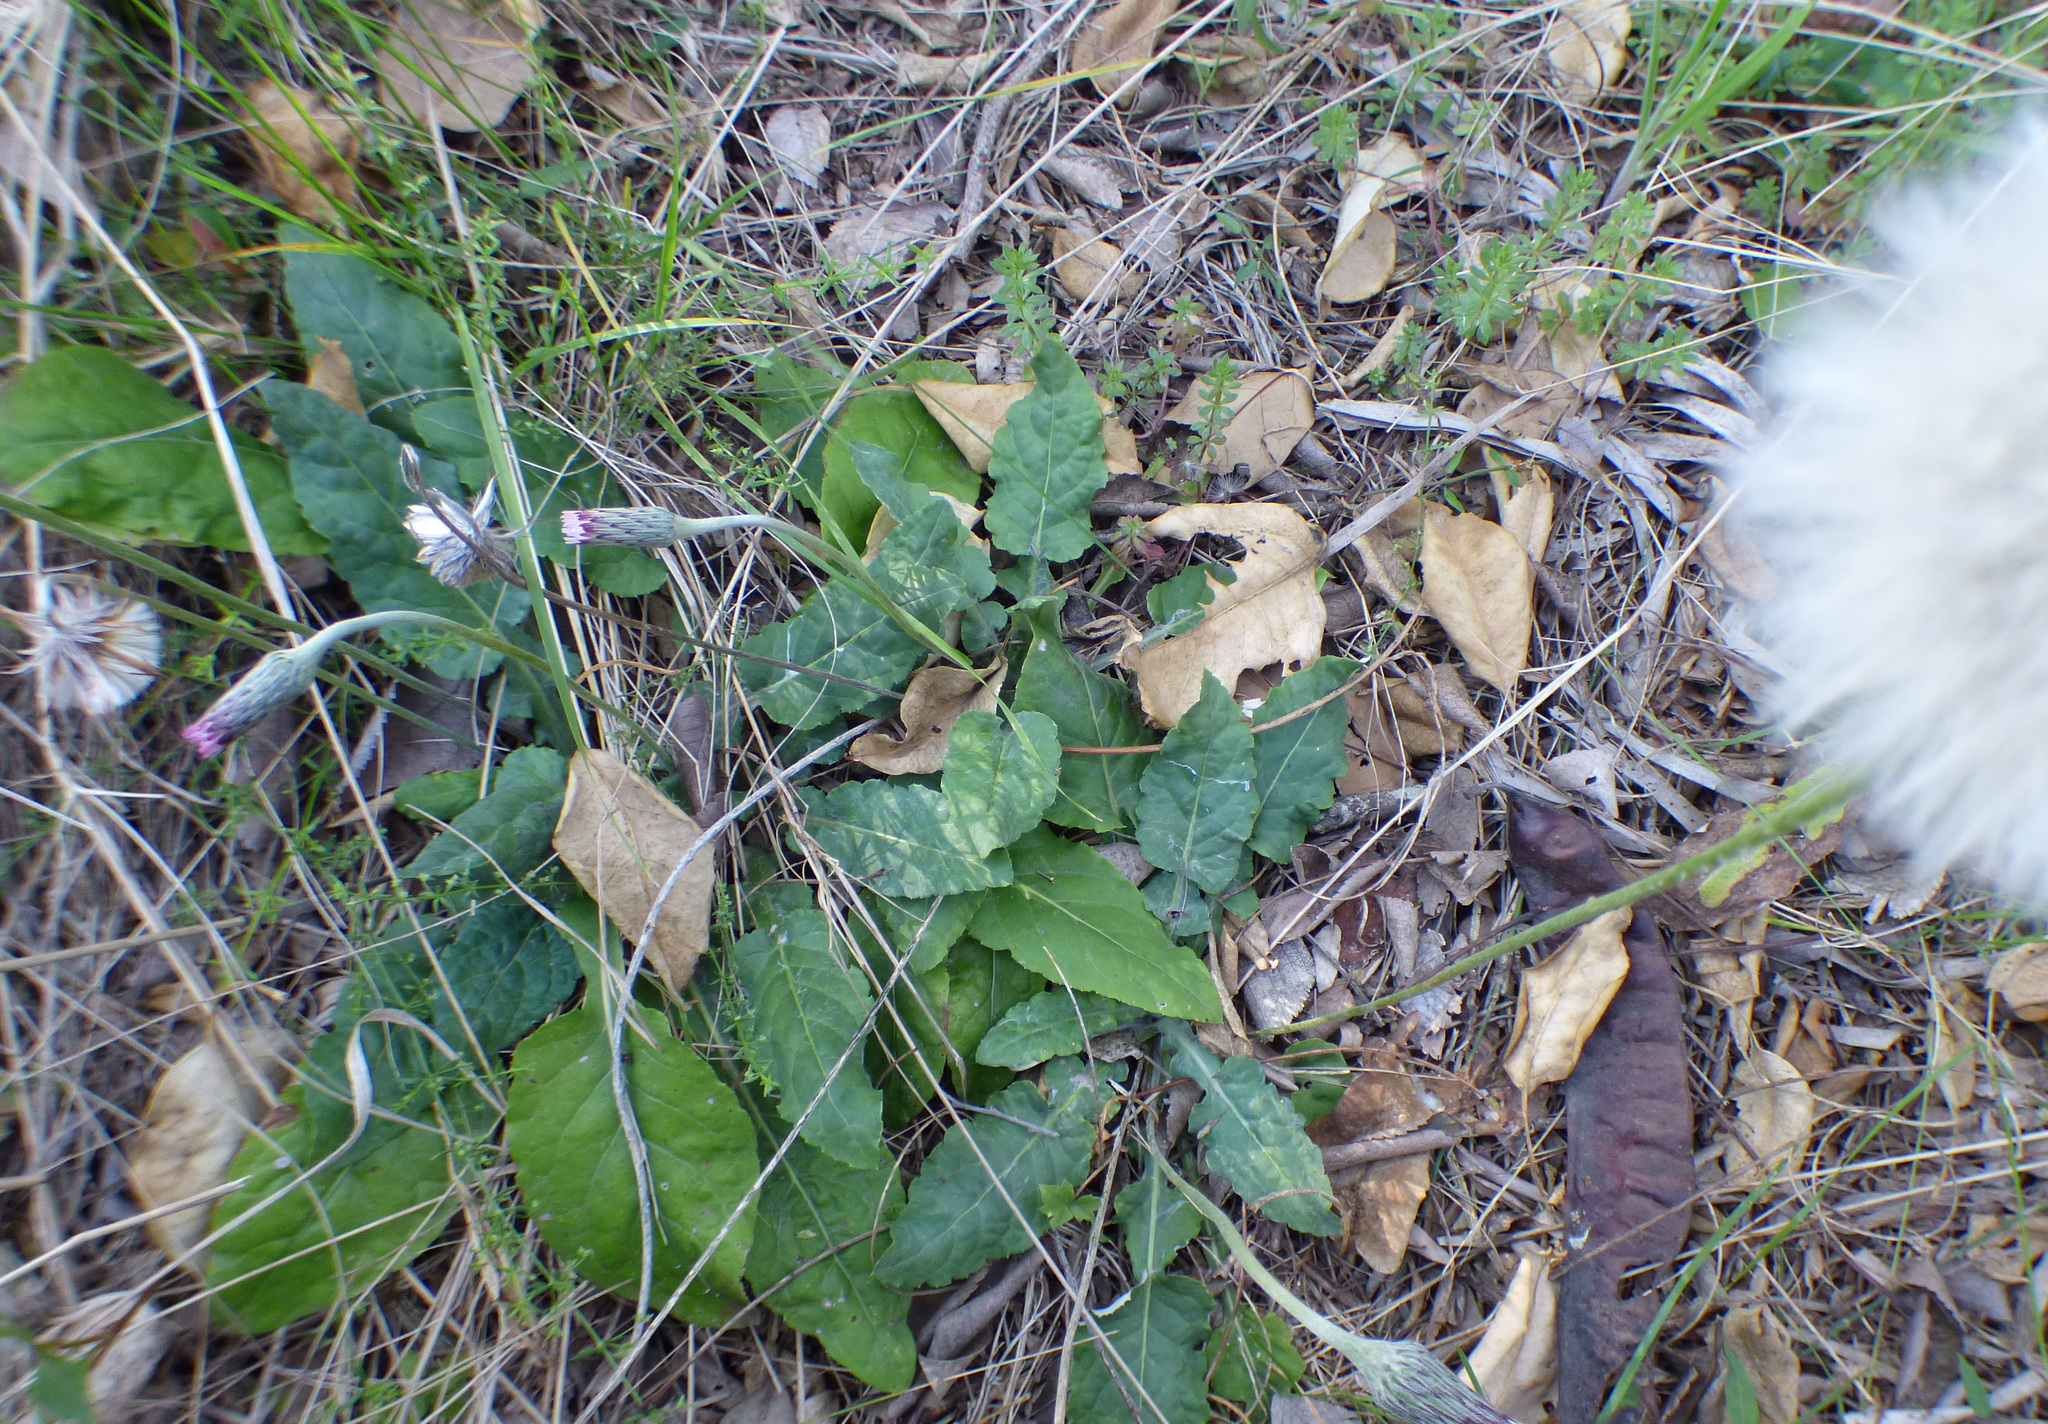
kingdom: Plantae
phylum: Tracheophyta
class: Magnoliopsida
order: Asterales
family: Asteraceae
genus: Chaptalia
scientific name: Chaptalia nutans
